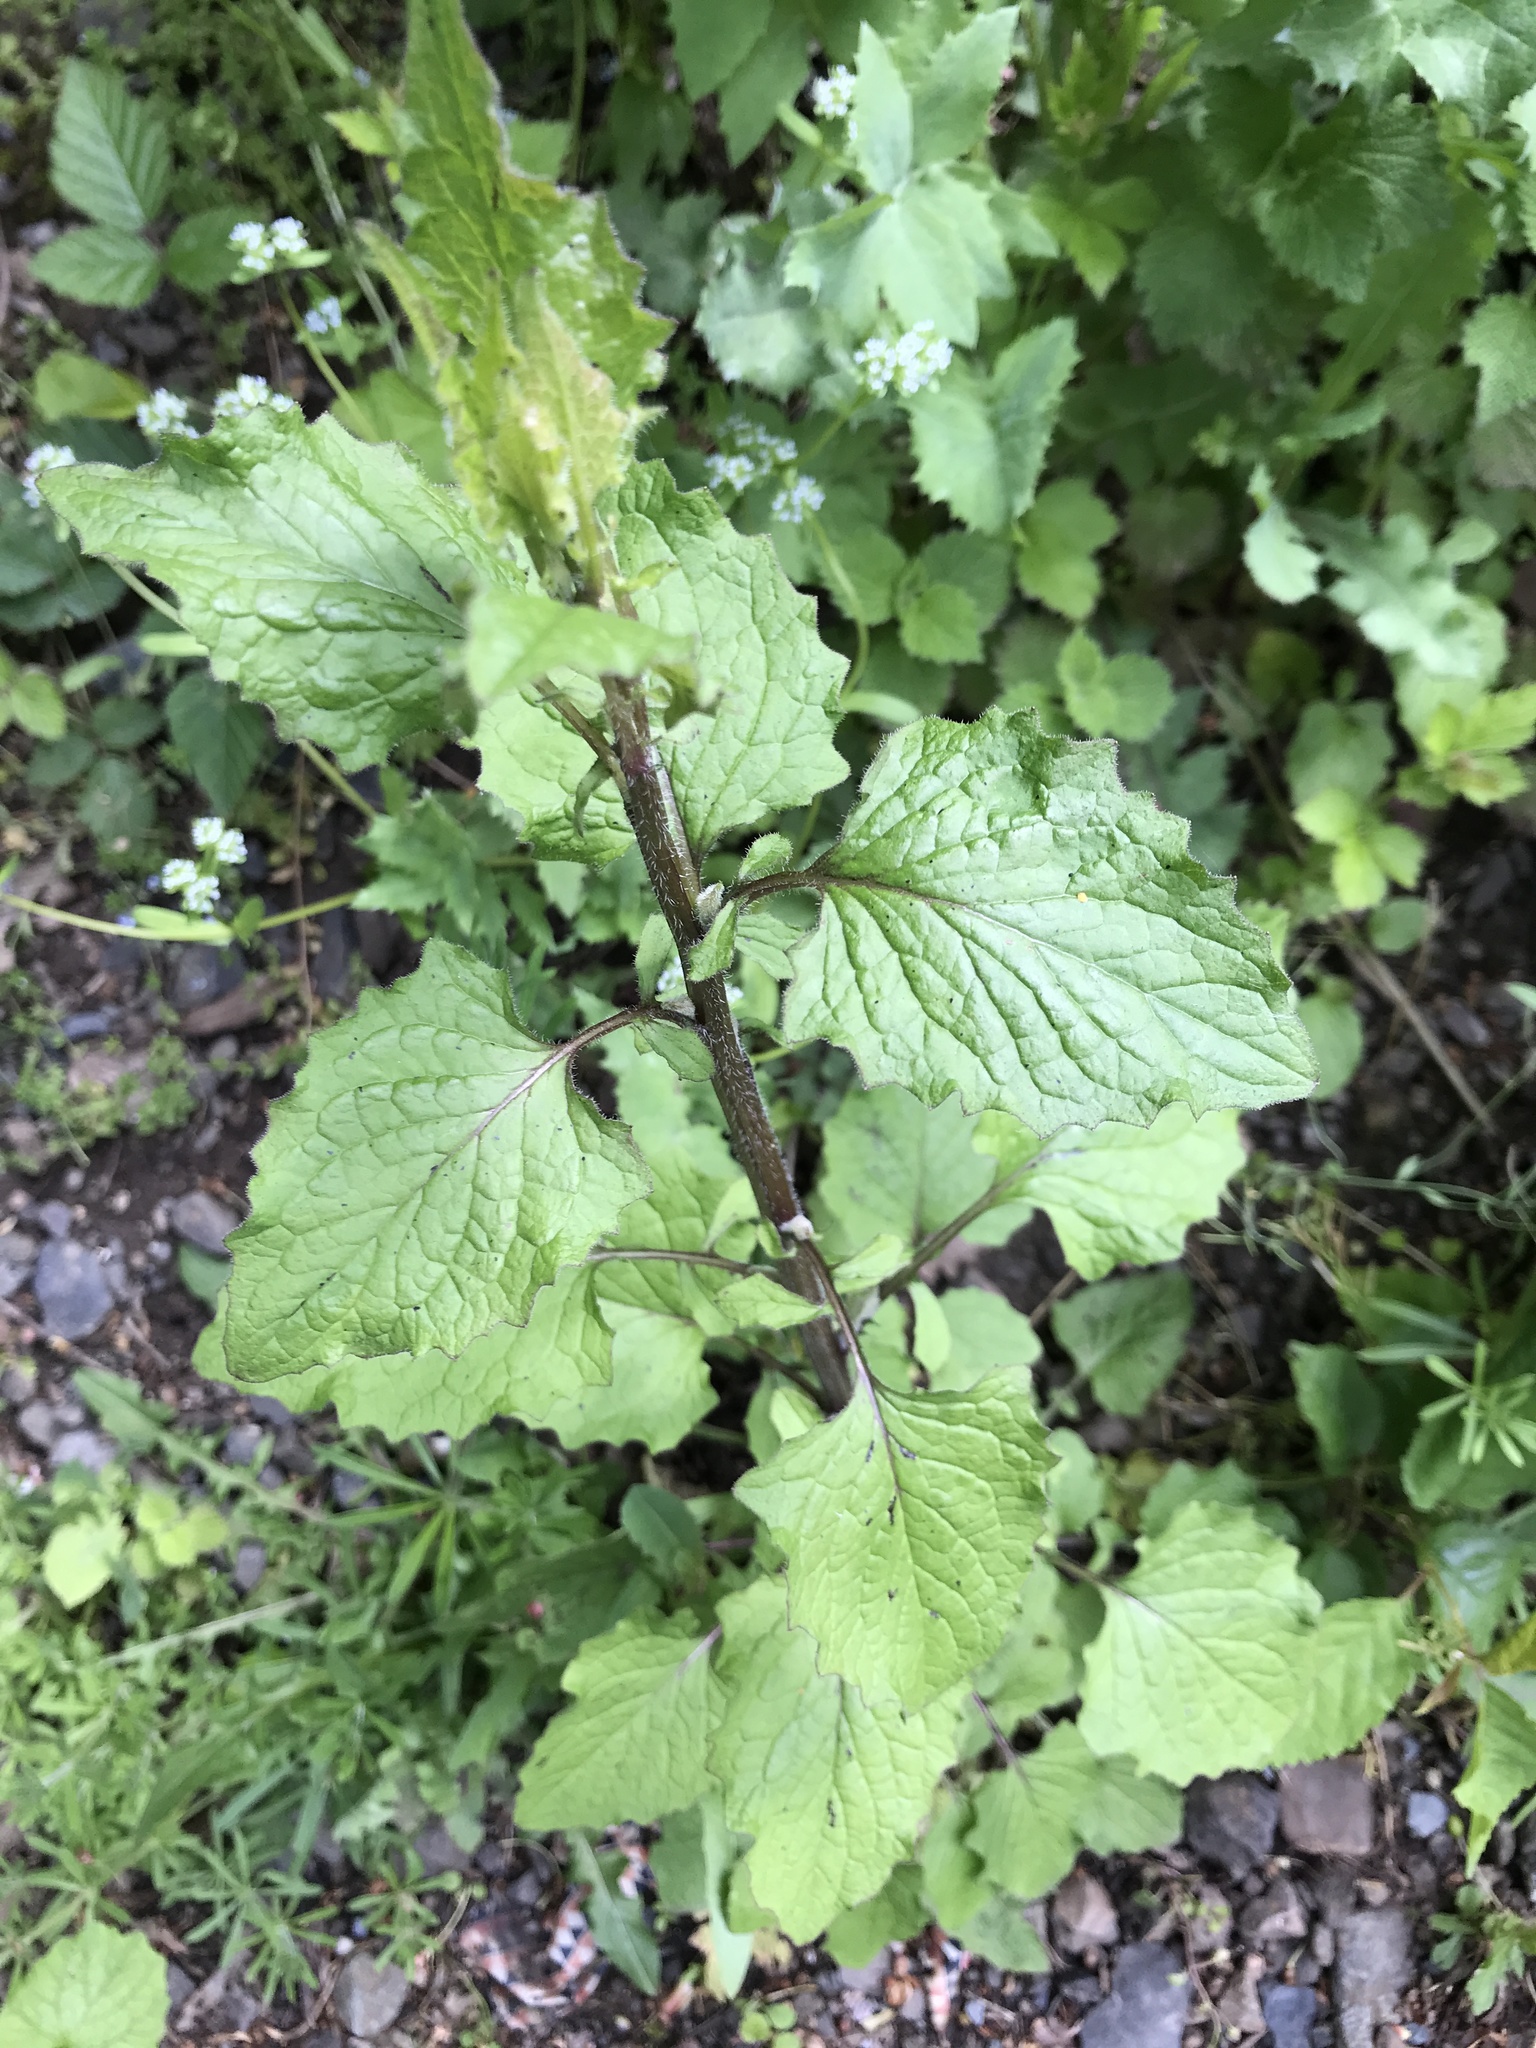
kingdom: Plantae
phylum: Tracheophyta
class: Magnoliopsida
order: Asterales
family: Asteraceae
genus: Lapsana
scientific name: Lapsana communis
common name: Nipplewort
